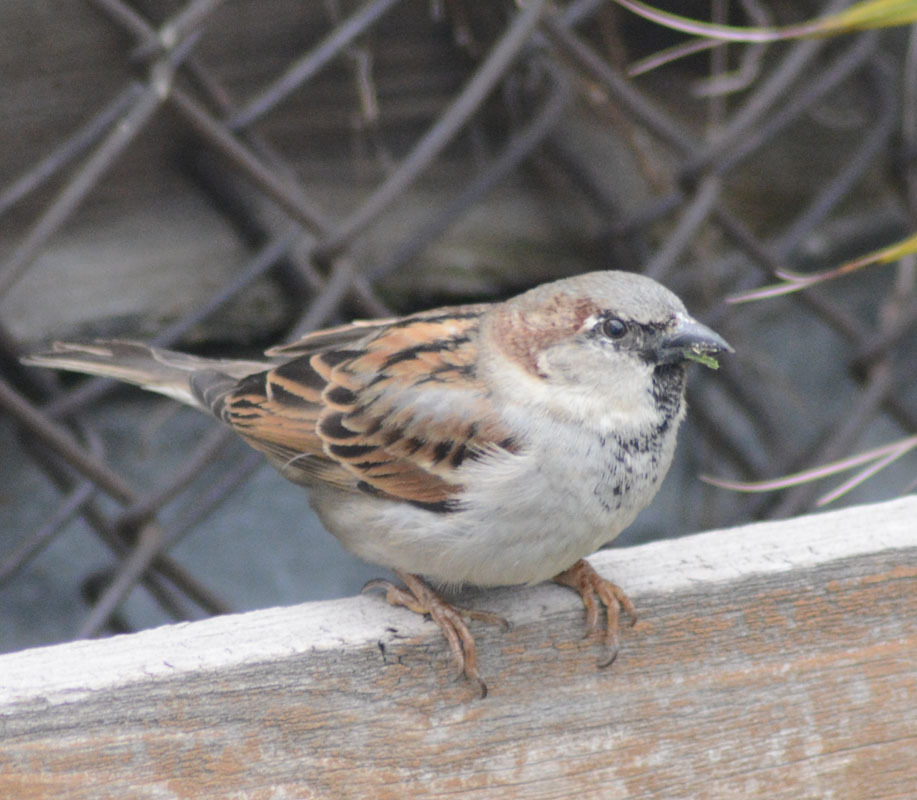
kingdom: Animalia
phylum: Chordata
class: Aves
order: Passeriformes
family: Passeridae
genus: Passer
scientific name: Passer domesticus
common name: House sparrow
